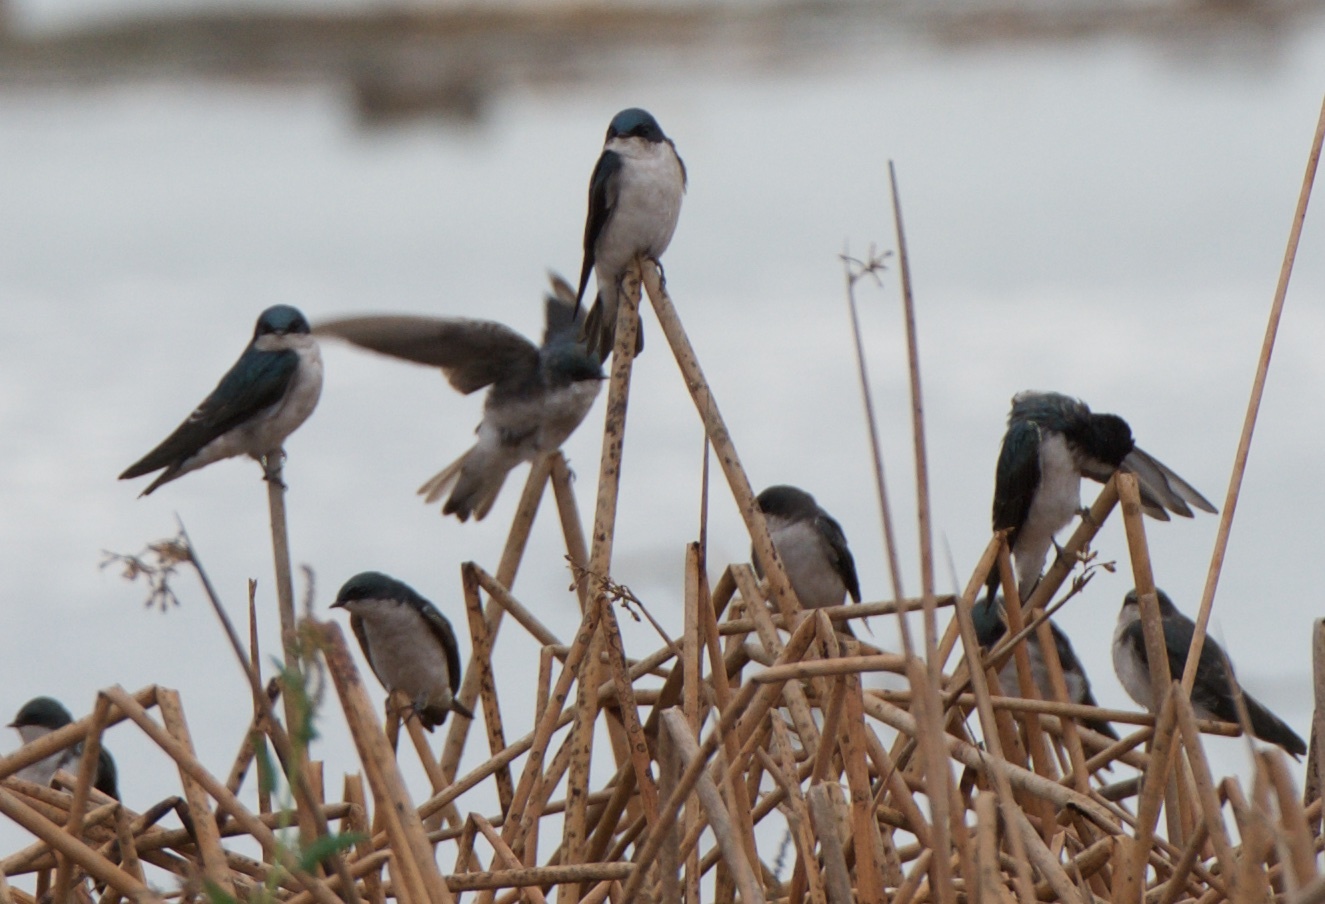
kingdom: Animalia
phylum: Chordata
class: Aves
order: Passeriformes
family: Hirundinidae
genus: Tachycineta
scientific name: Tachycineta bicolor
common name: Tree swallow
